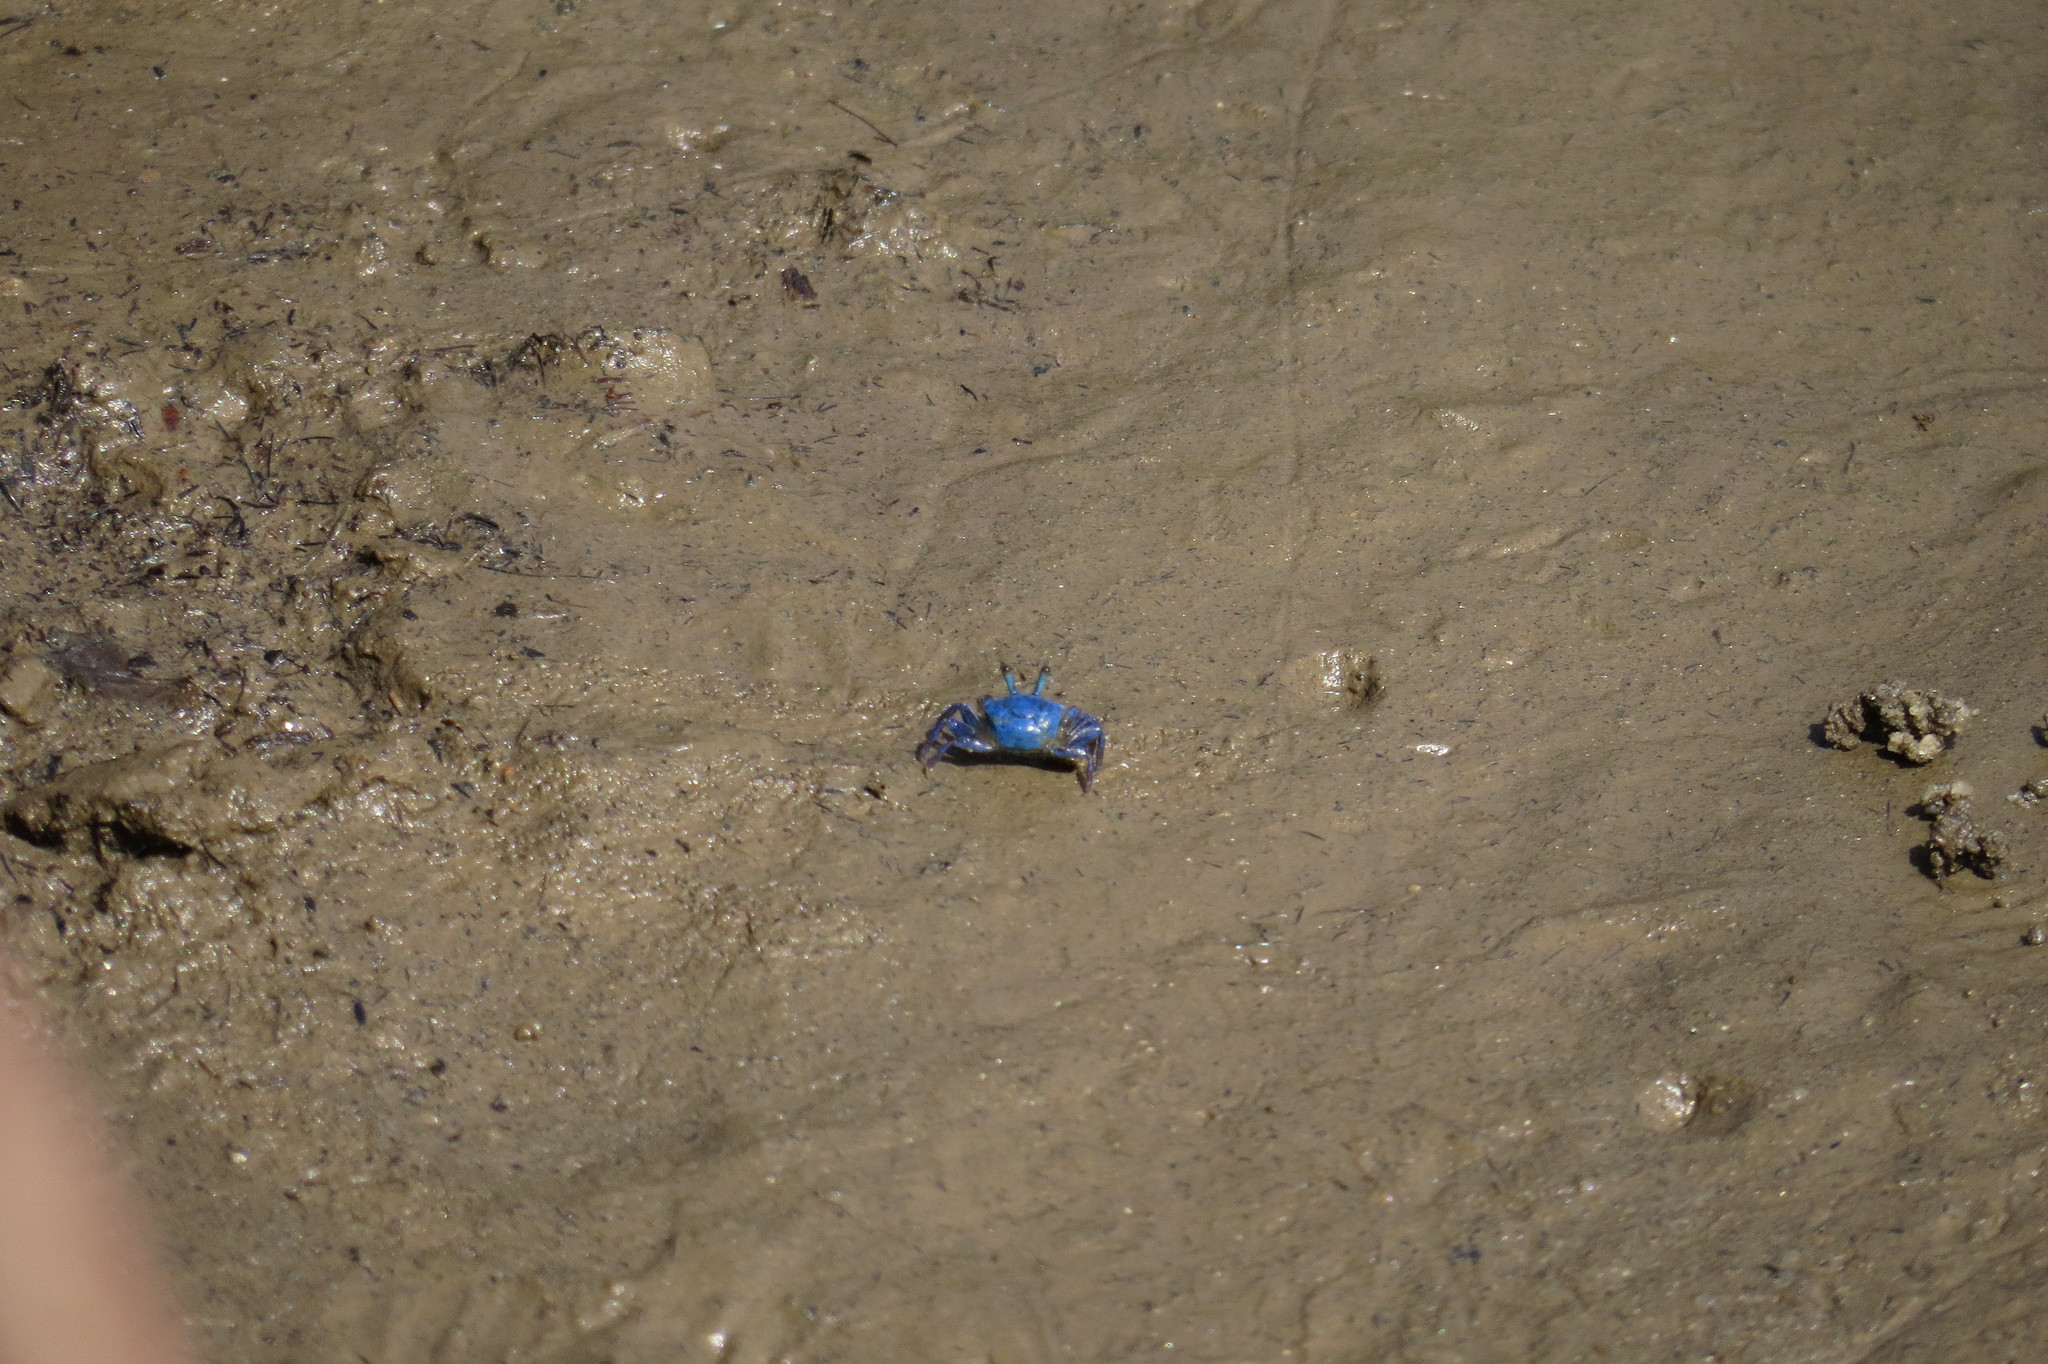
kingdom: Animalia
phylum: Arthropoda
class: Malacostraca
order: Decapoda
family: Ocypodidae
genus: Tubuca
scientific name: Tubuca dussumieri
